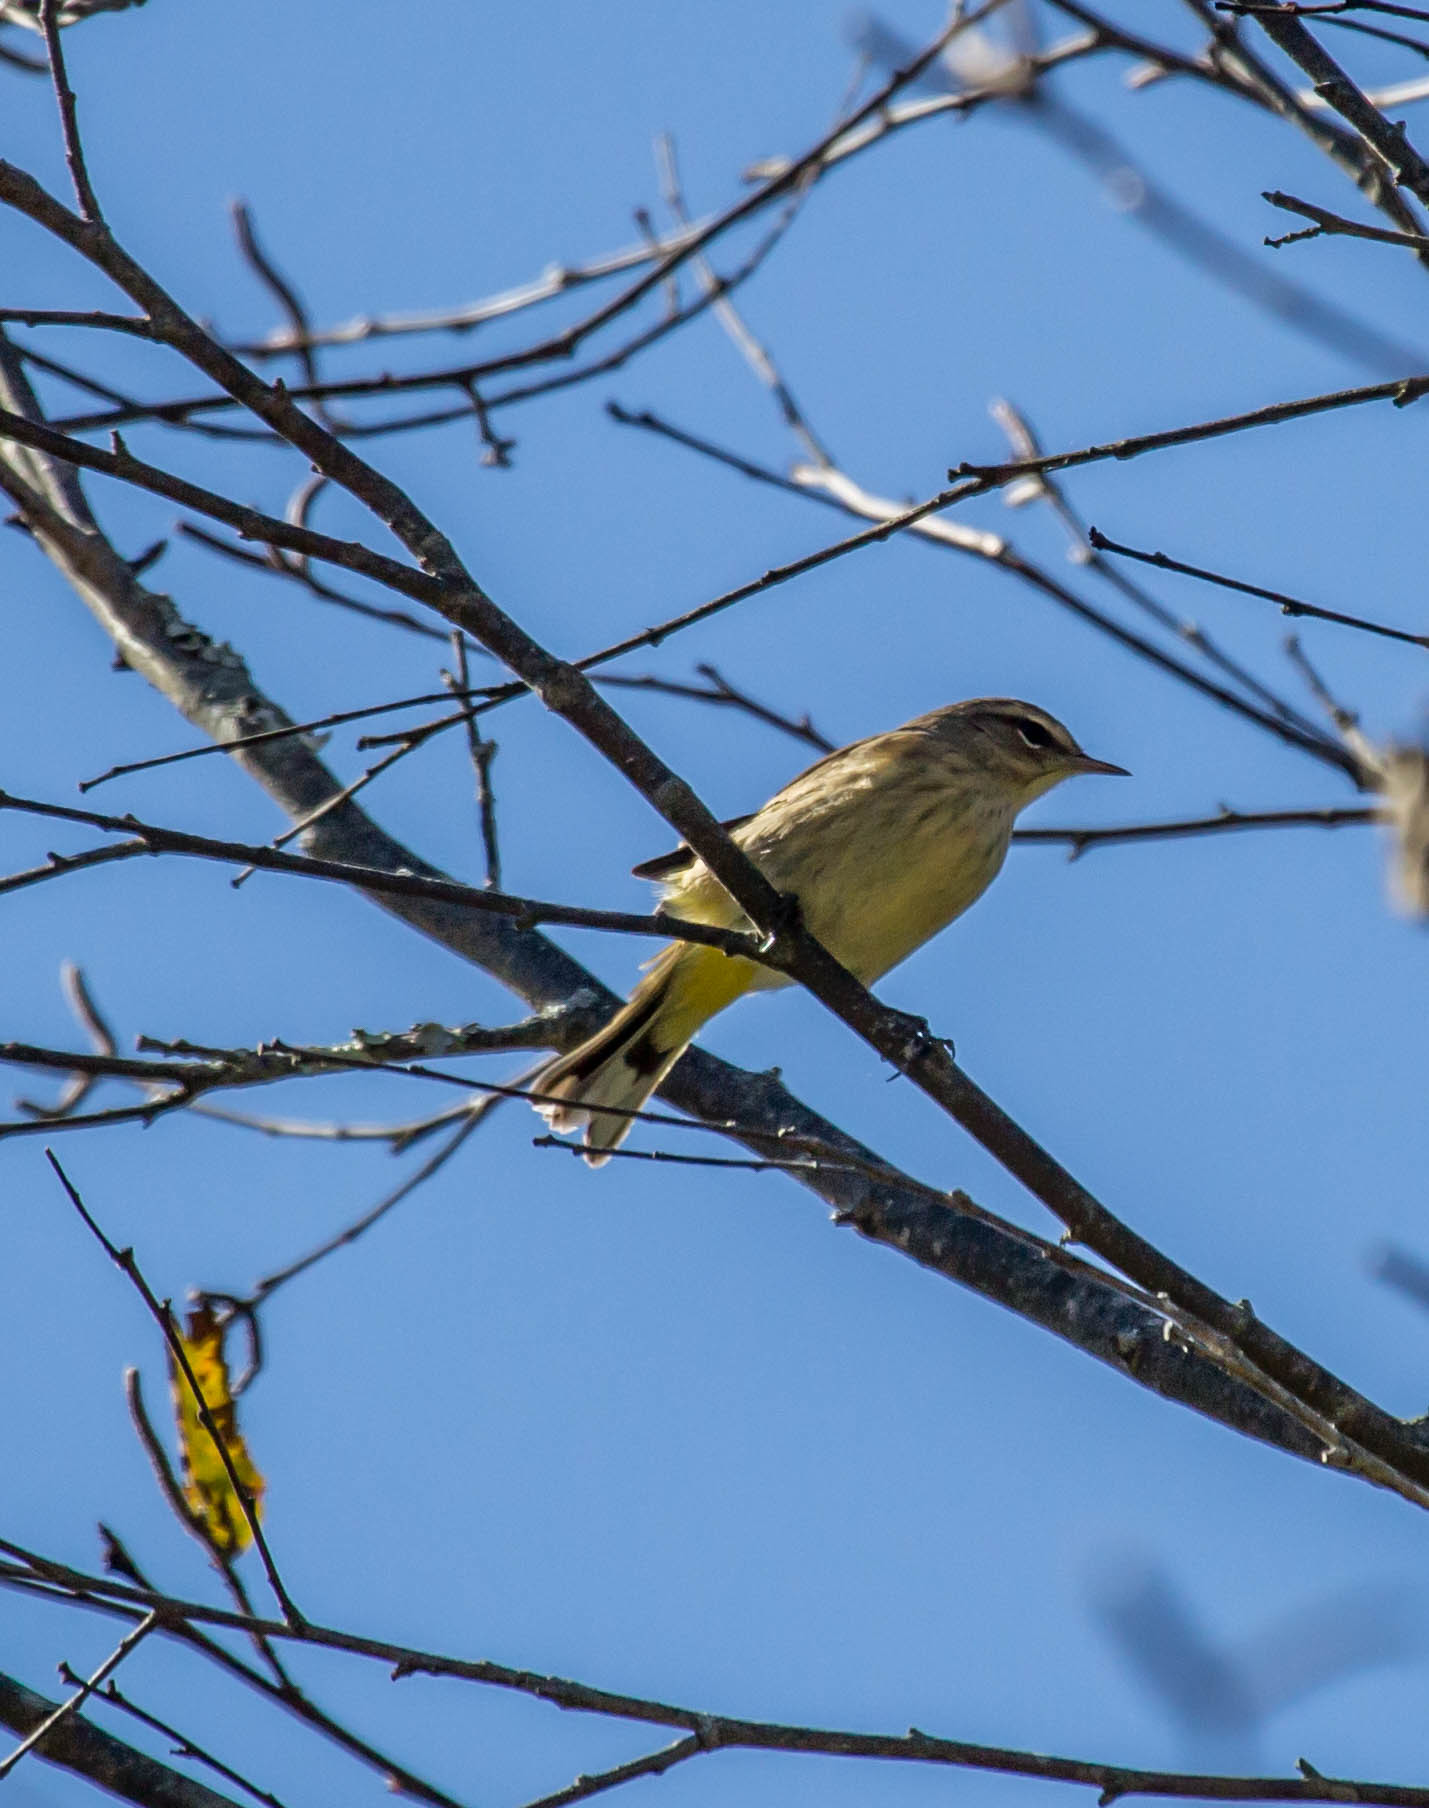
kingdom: Animalia
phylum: Chordata
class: Aves
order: Passeriformes
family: Parulidae
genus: Setophaga
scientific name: Setophaga palmarum
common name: Palm warbler
